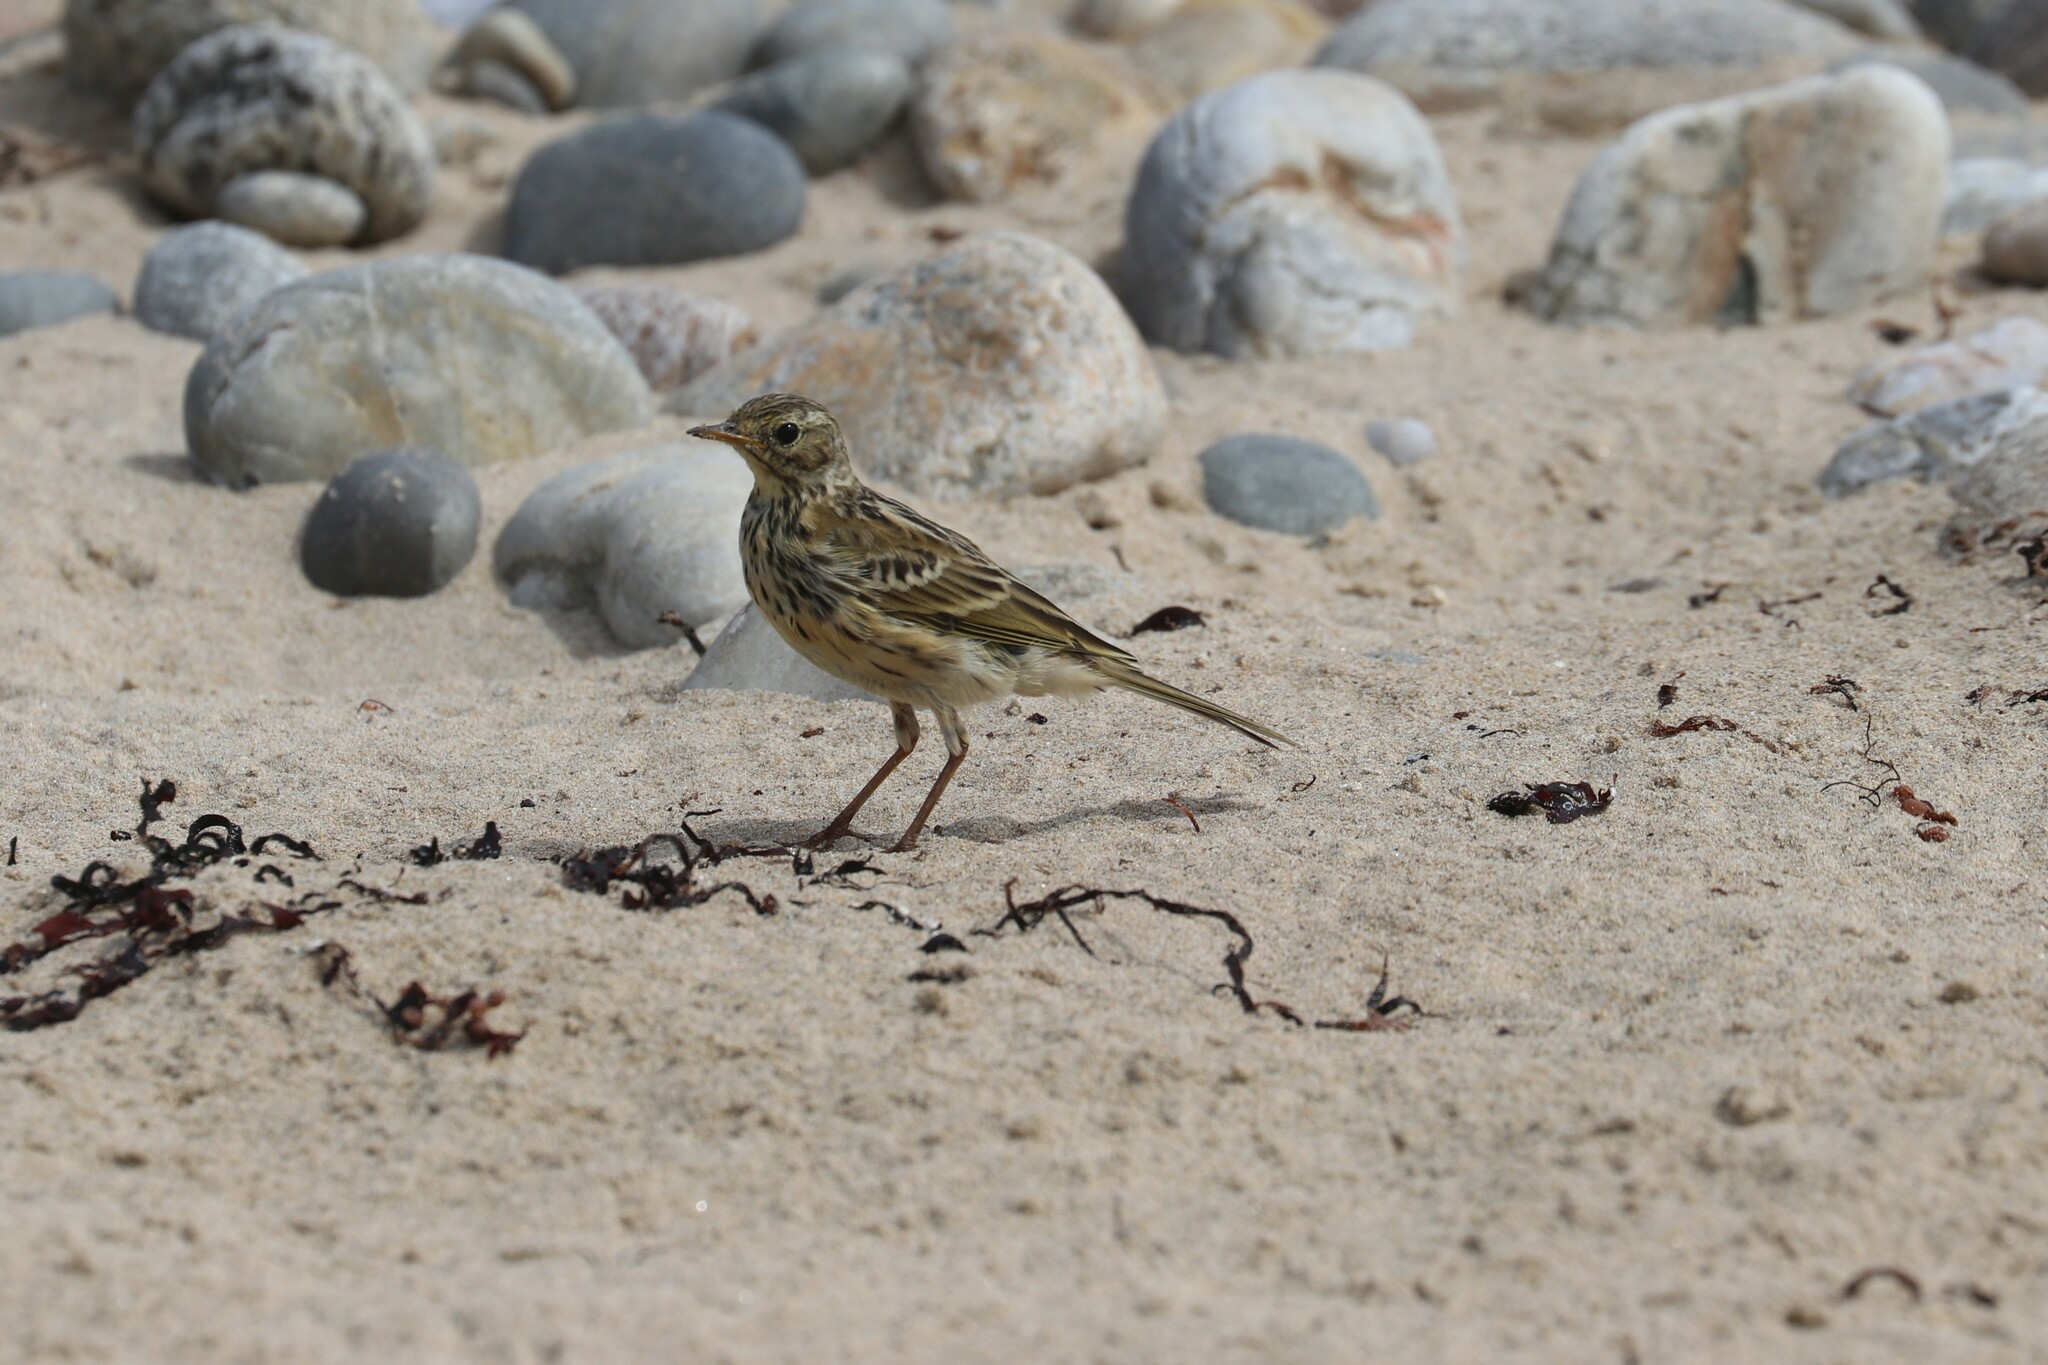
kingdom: Animalia
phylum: Chordata
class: Aves
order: Passeriformes
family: Motacillidae
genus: Anthus
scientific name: Anthus pratensis
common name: Meadow pipit
